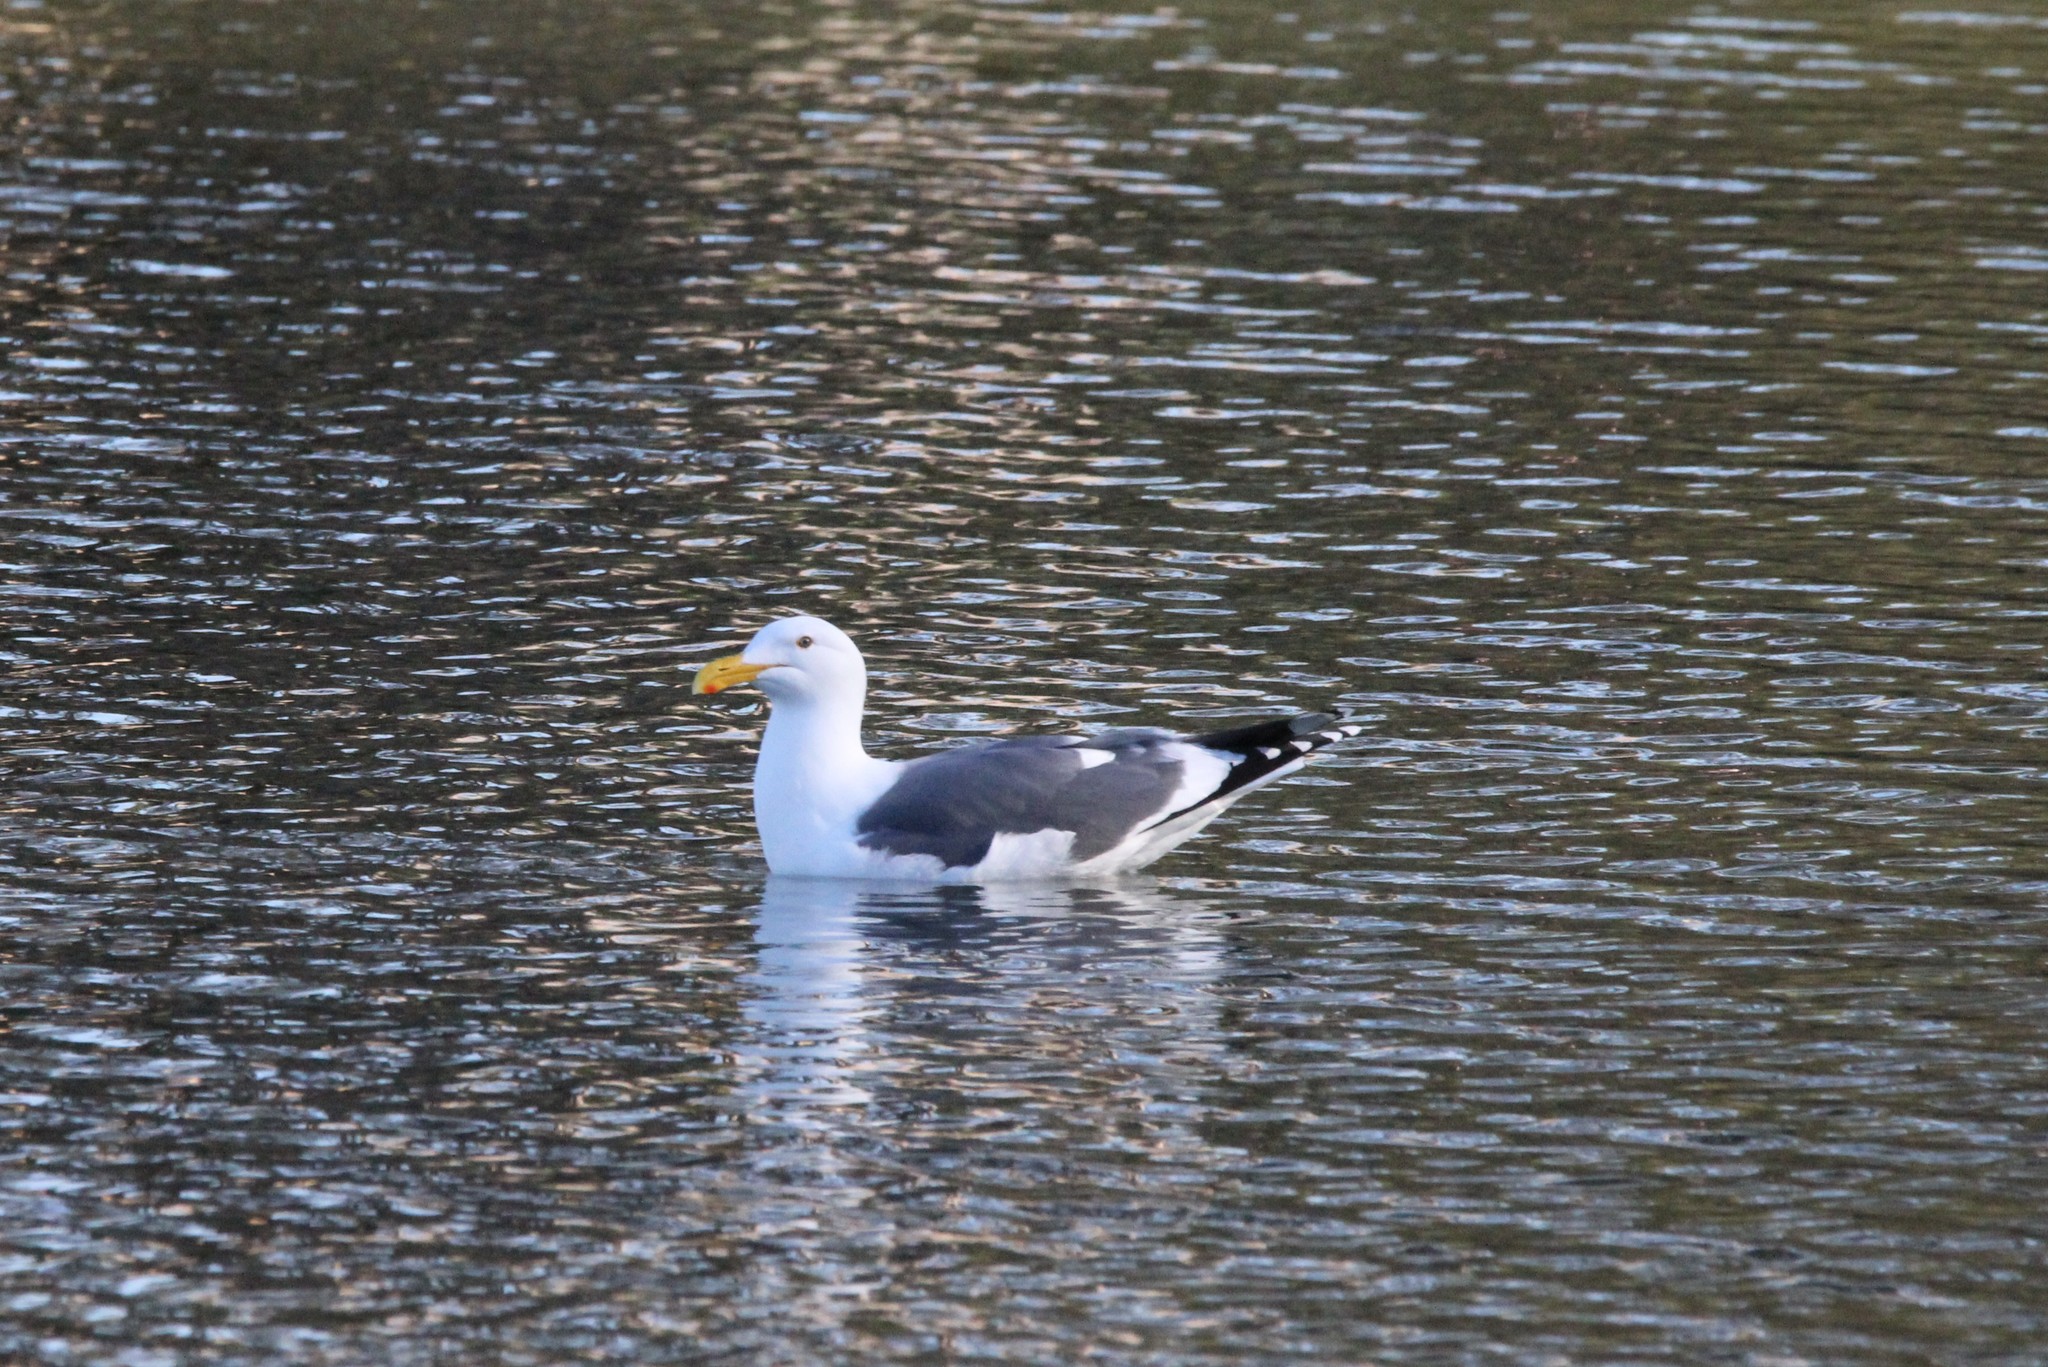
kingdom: Animalia
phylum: Chordata
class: Aves
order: Charadriiformes
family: Laridae
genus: Larus
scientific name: Larus occidentalis
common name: Western gull
